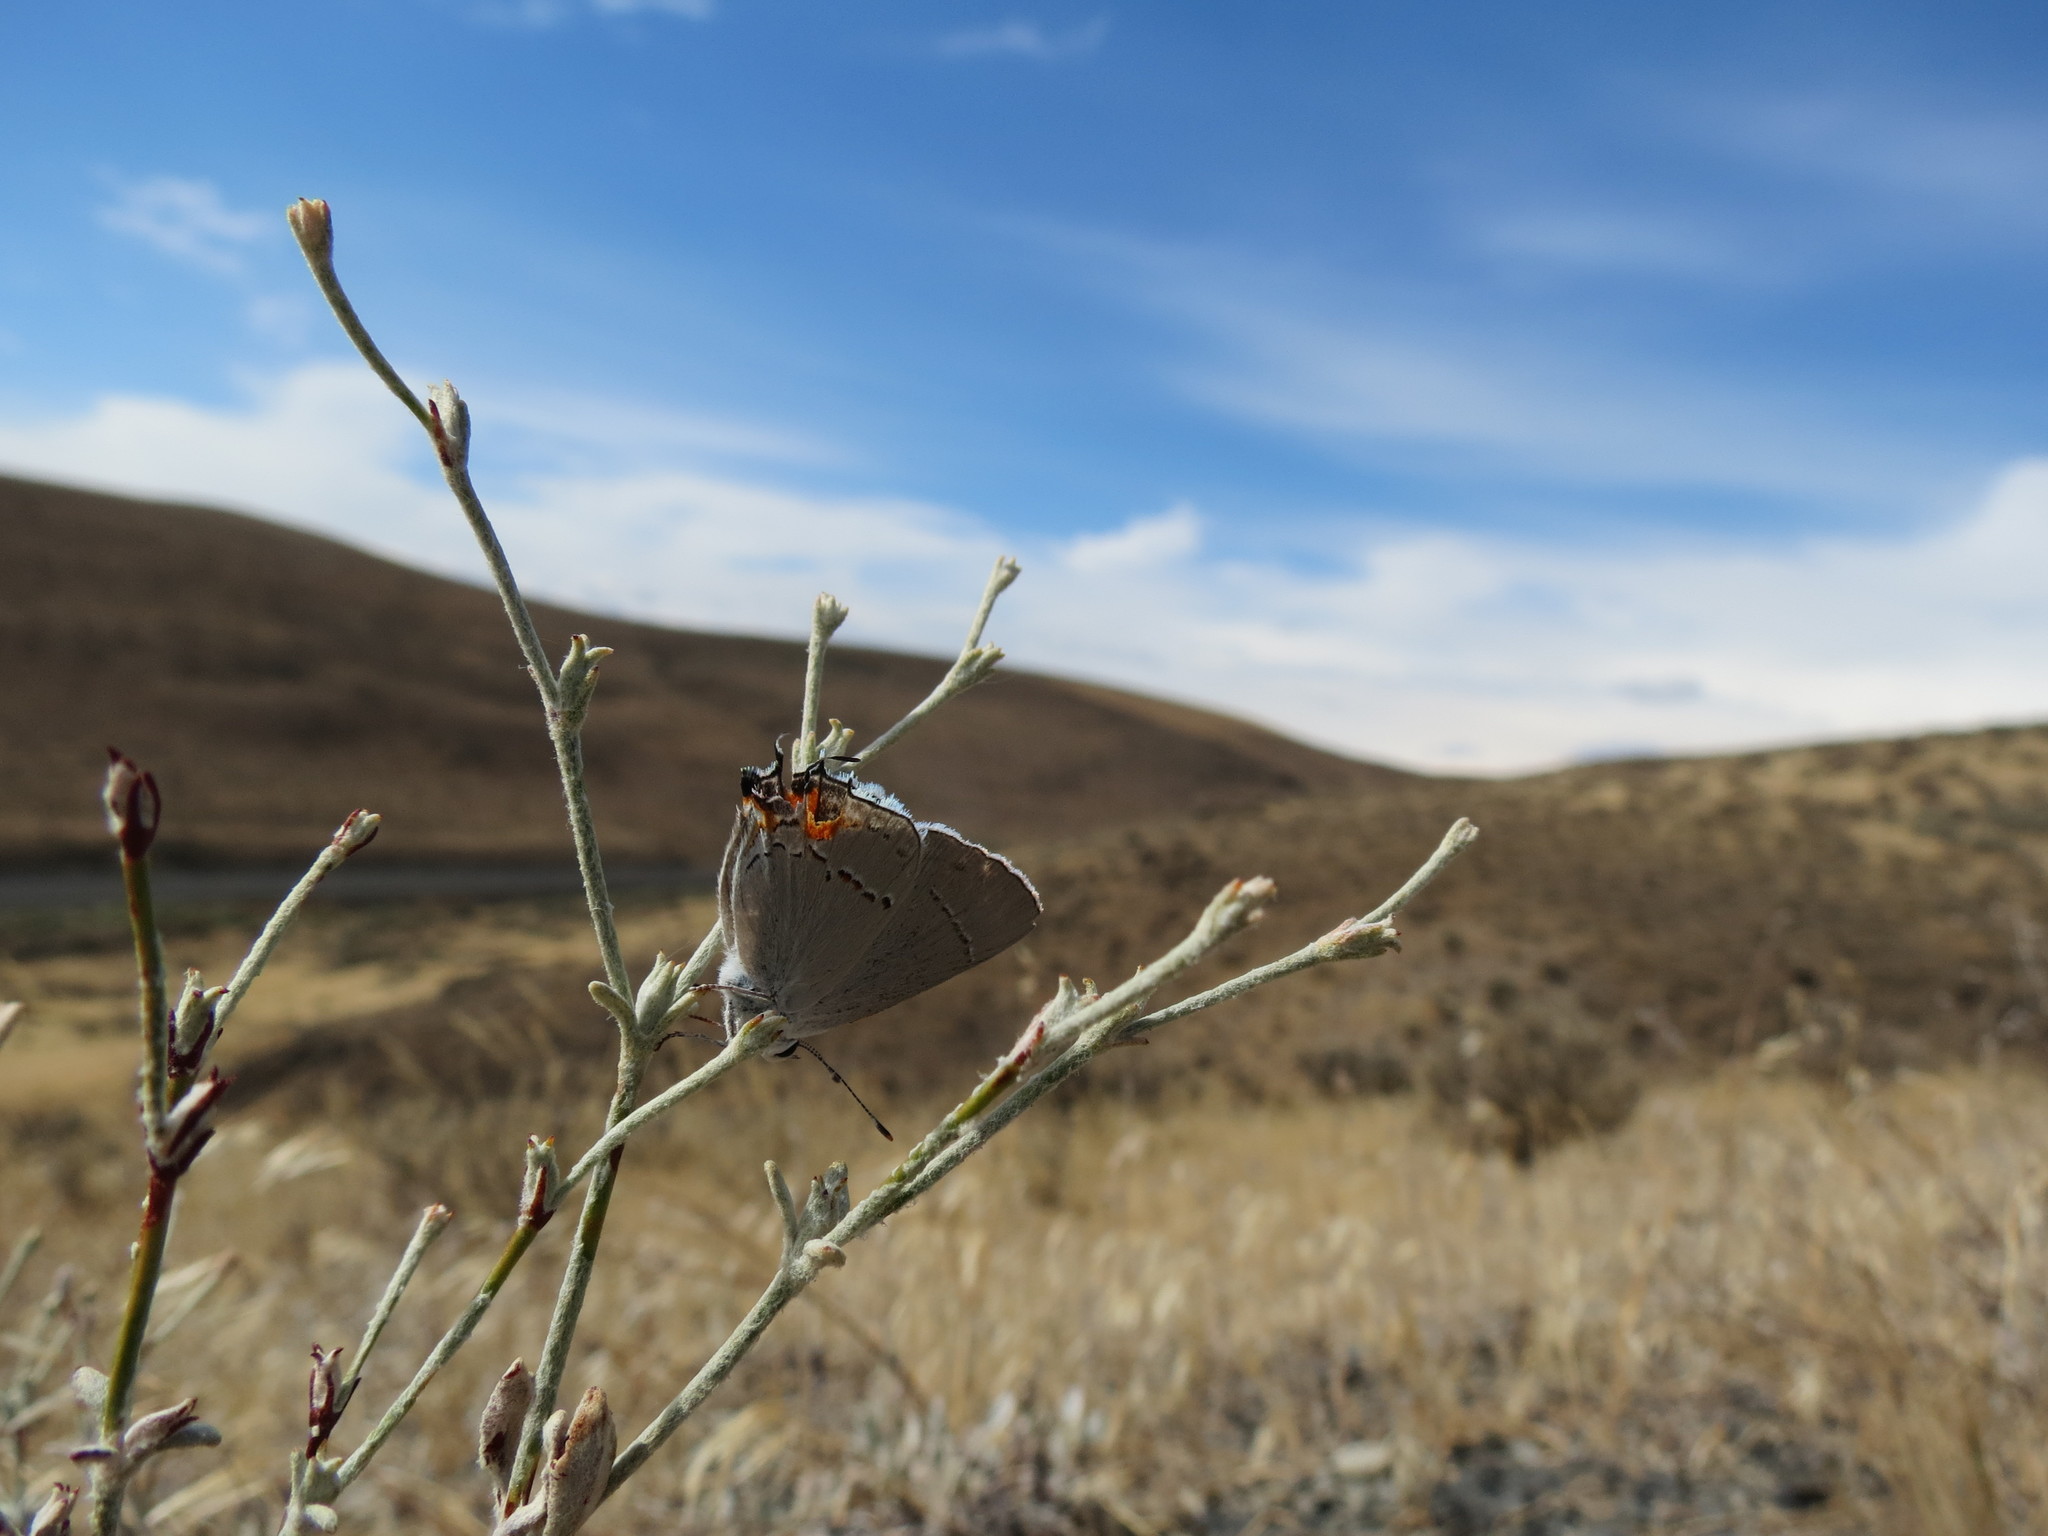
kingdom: Animalia
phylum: Arthropoda
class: Insecta
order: Lepidoptera
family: Lycaenidae
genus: Strymon
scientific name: Strymon melinus
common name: Gray hairstreak
